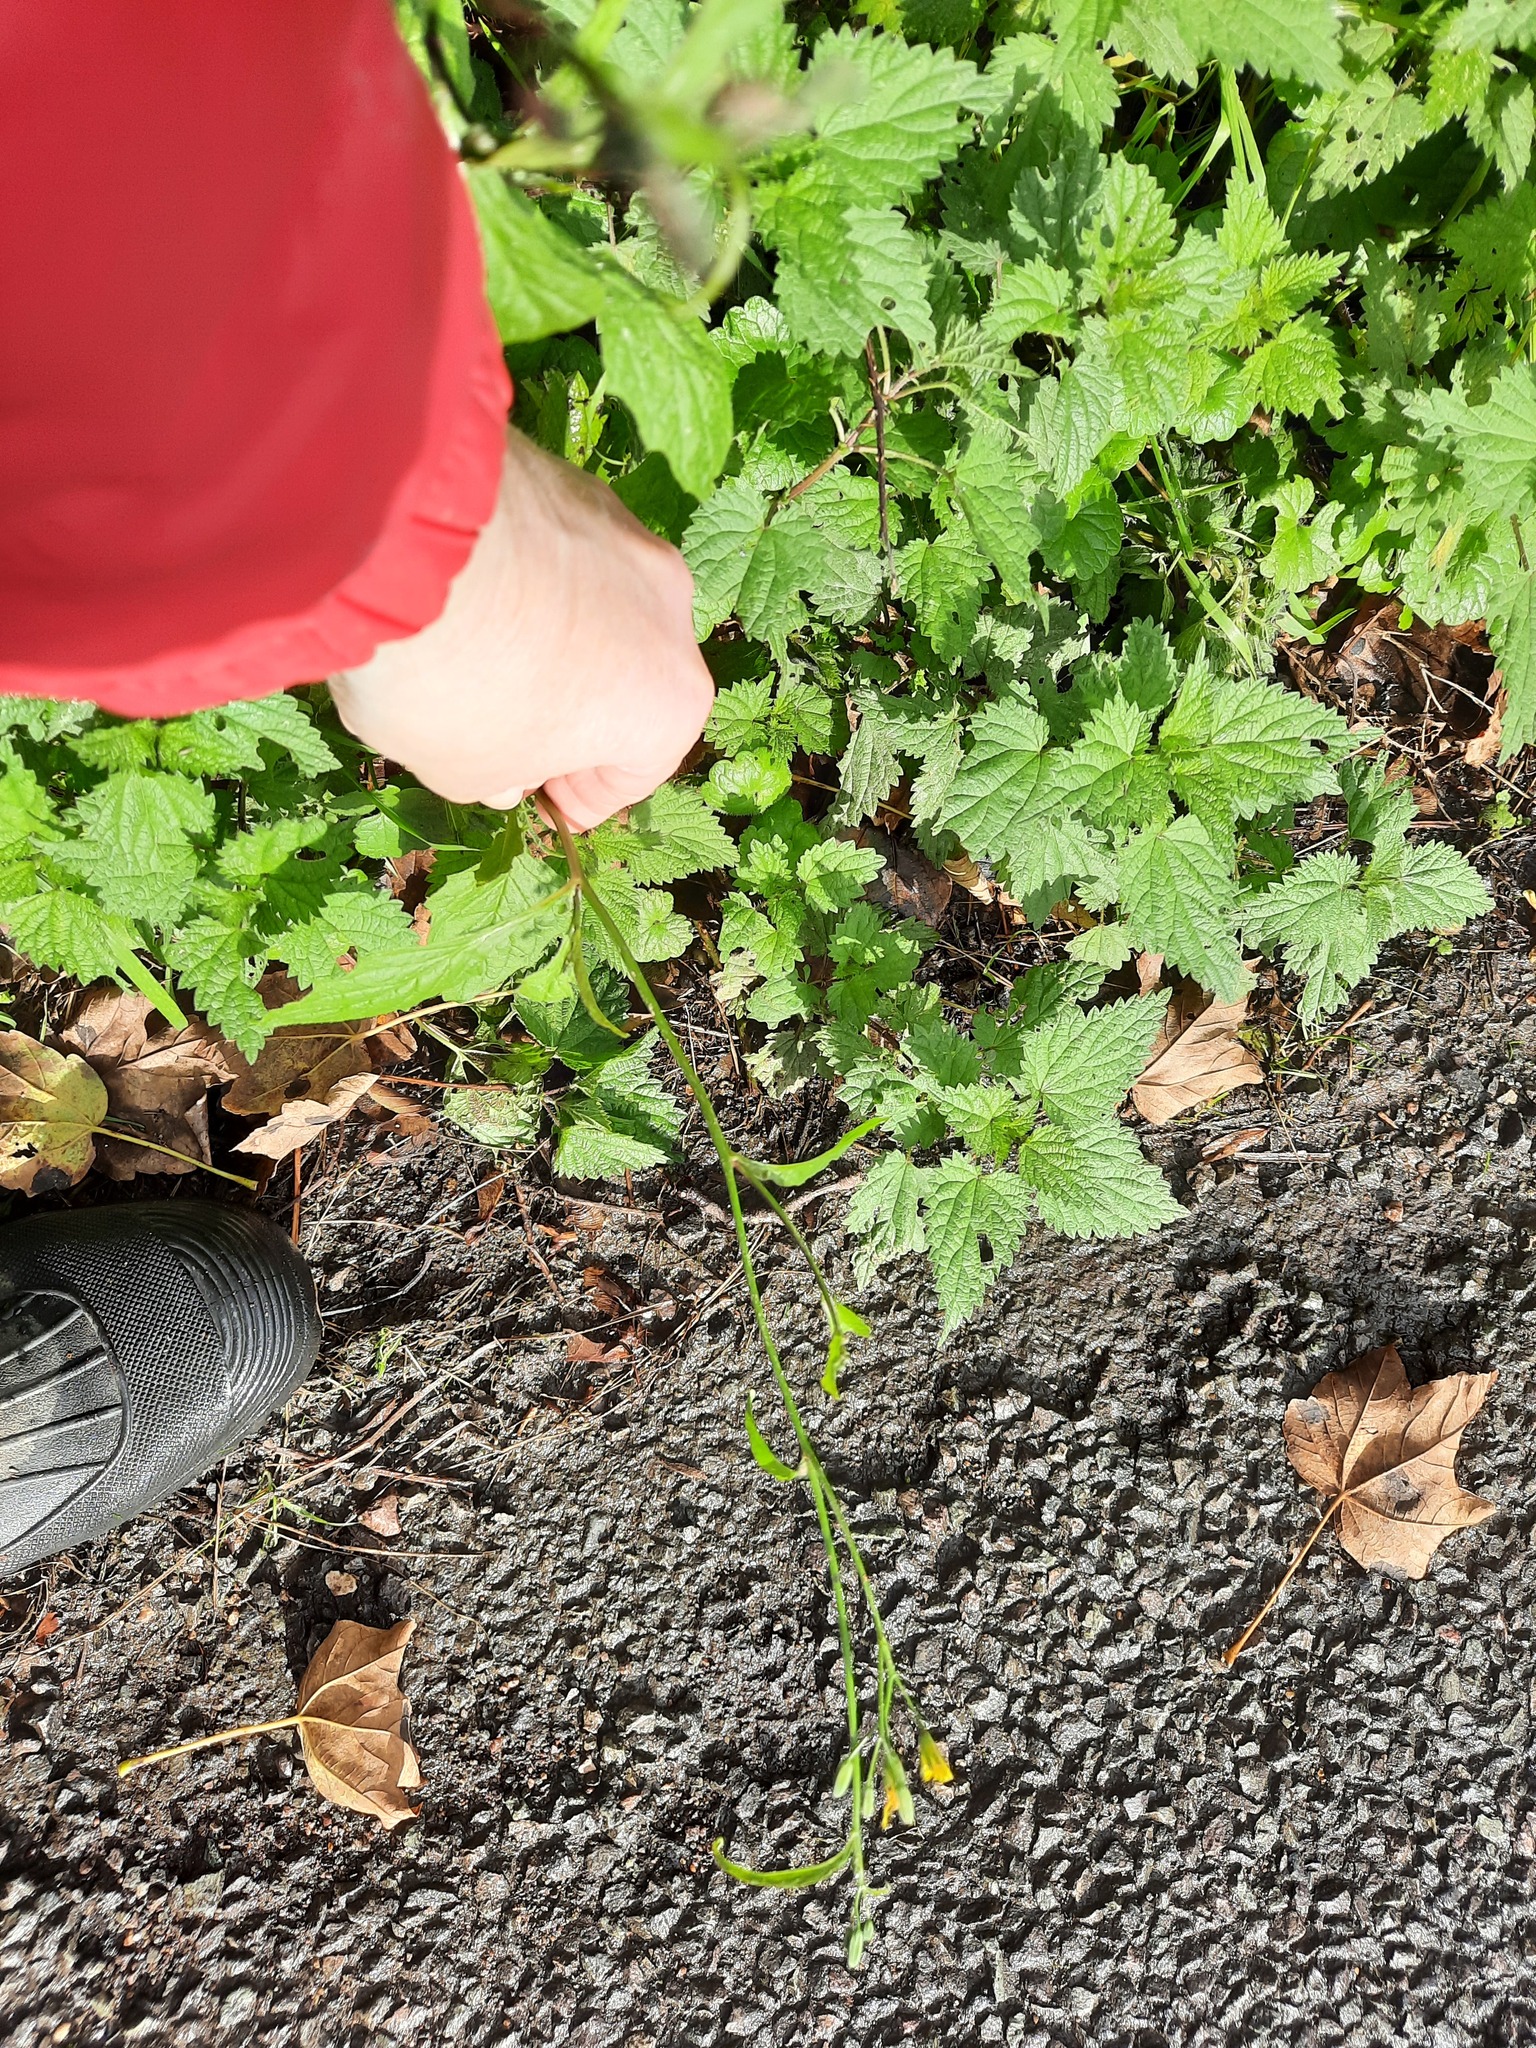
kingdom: Plantae
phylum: Tracheophyta
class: Magnoliopsida
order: Asterales
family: Asteraceae
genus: Lapsana
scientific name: Lapsana communis
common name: Nipplewort
